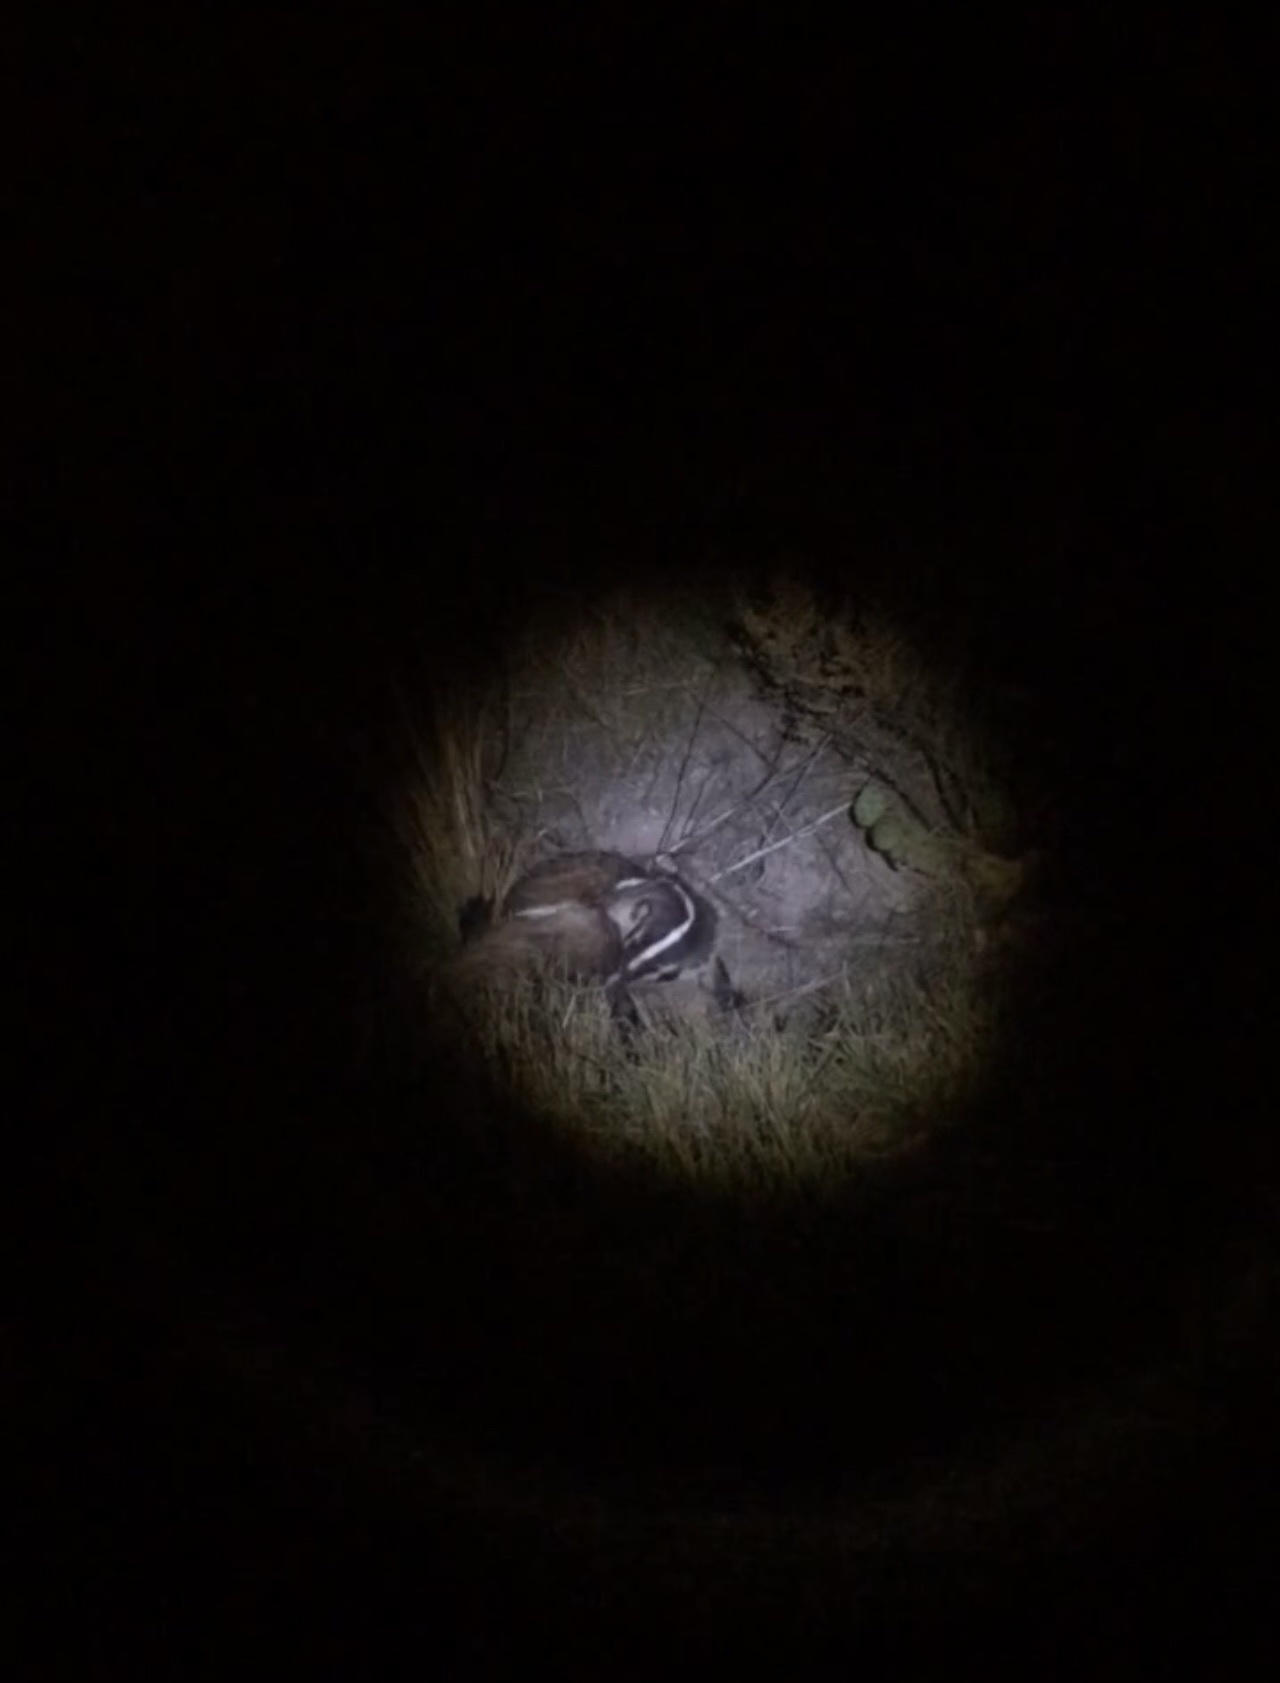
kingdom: Animalia
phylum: Chordata
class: Mammalia
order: Carnivora
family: Mustelidae
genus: Taxidea
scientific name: Taxidea taxus
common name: American badger
